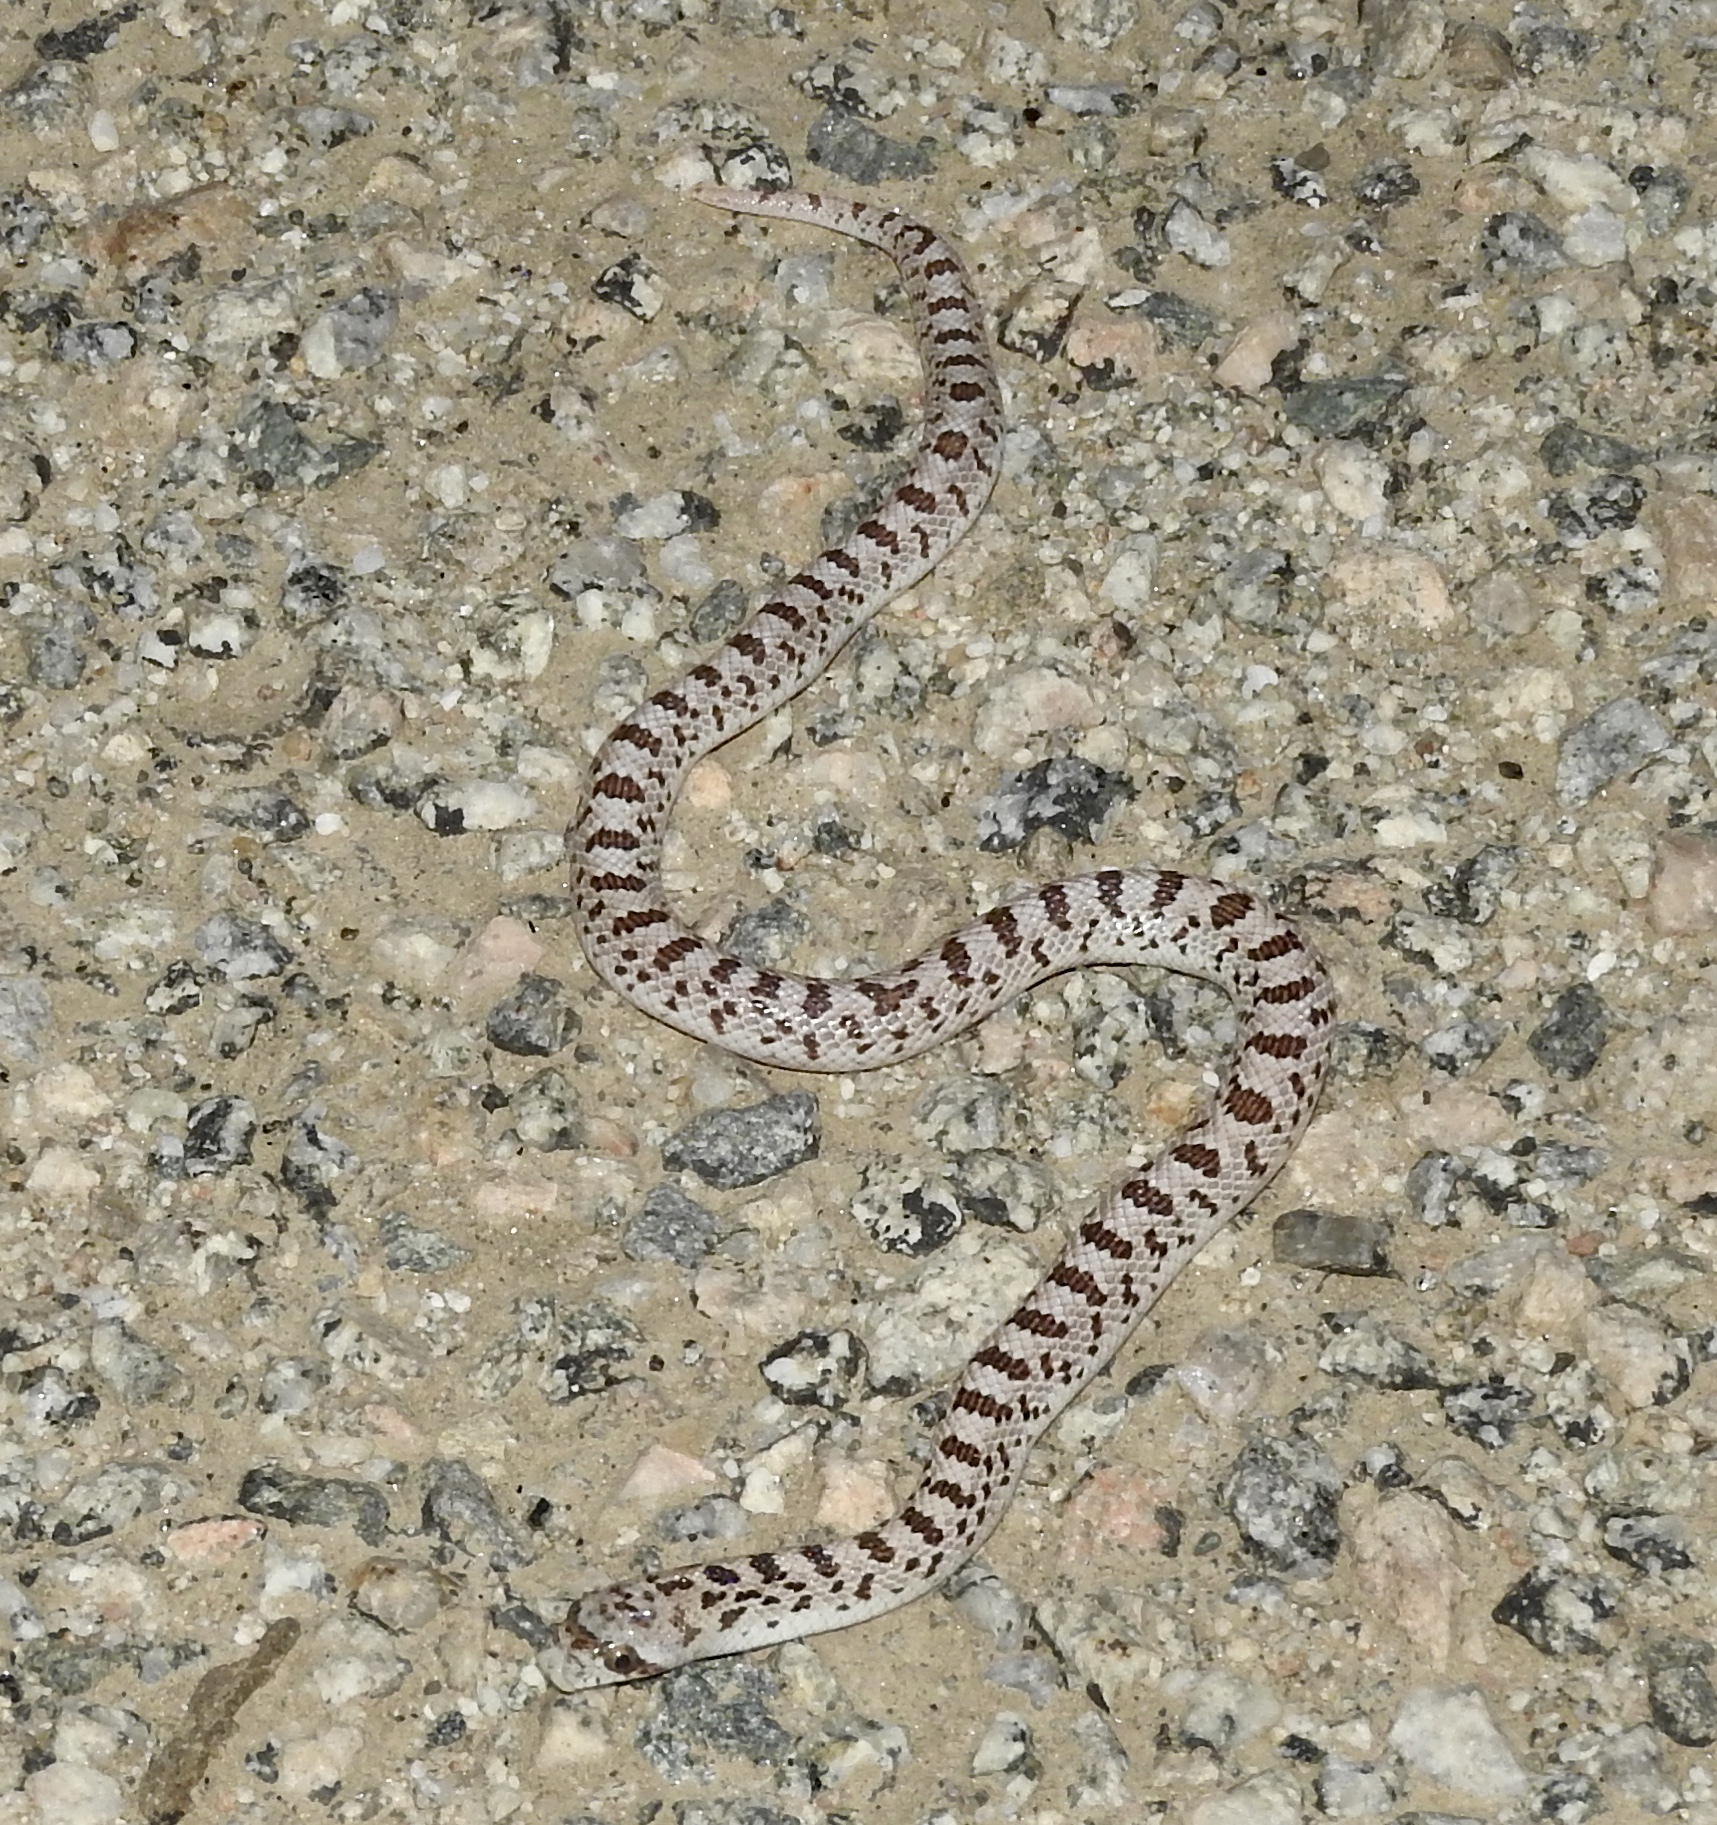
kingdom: Animalia
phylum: Chordata
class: Squamata
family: Colubridae
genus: Phyllorhynchus
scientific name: Phyllorhynchus decurtatus
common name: Spotted leafnose snake
